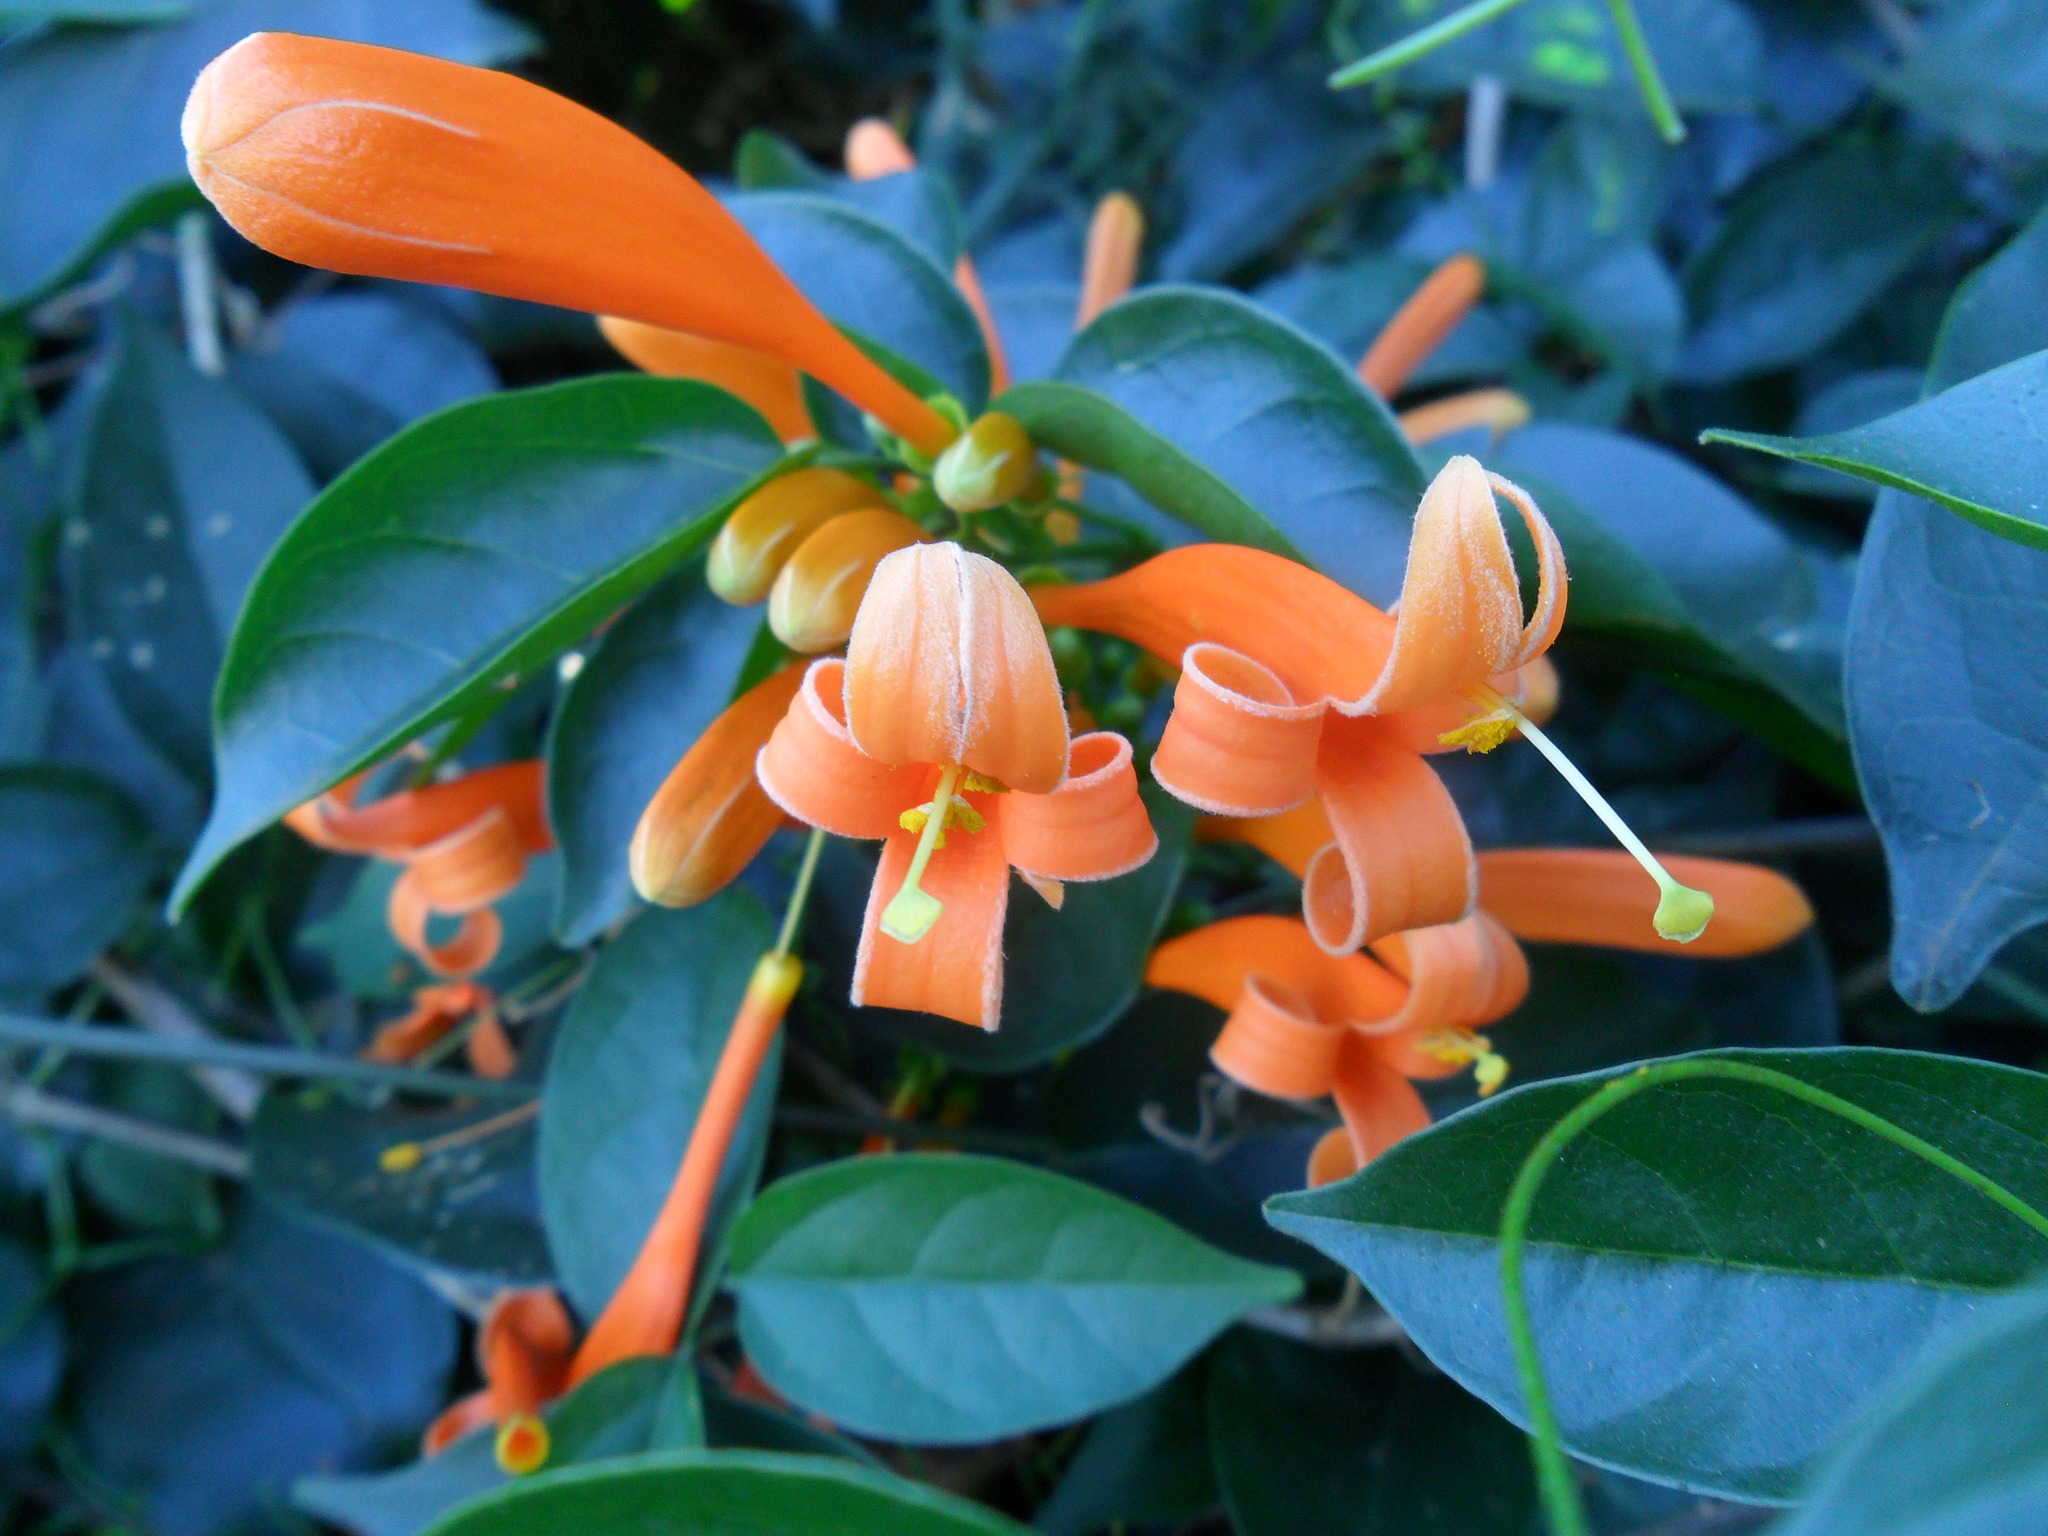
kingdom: Plantae
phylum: Tracheophyta
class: Magnoliopsida
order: Lamiales
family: Bignoniaceae
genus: Pyrostegia
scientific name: Pyrostegia venusta
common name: Flamevine
